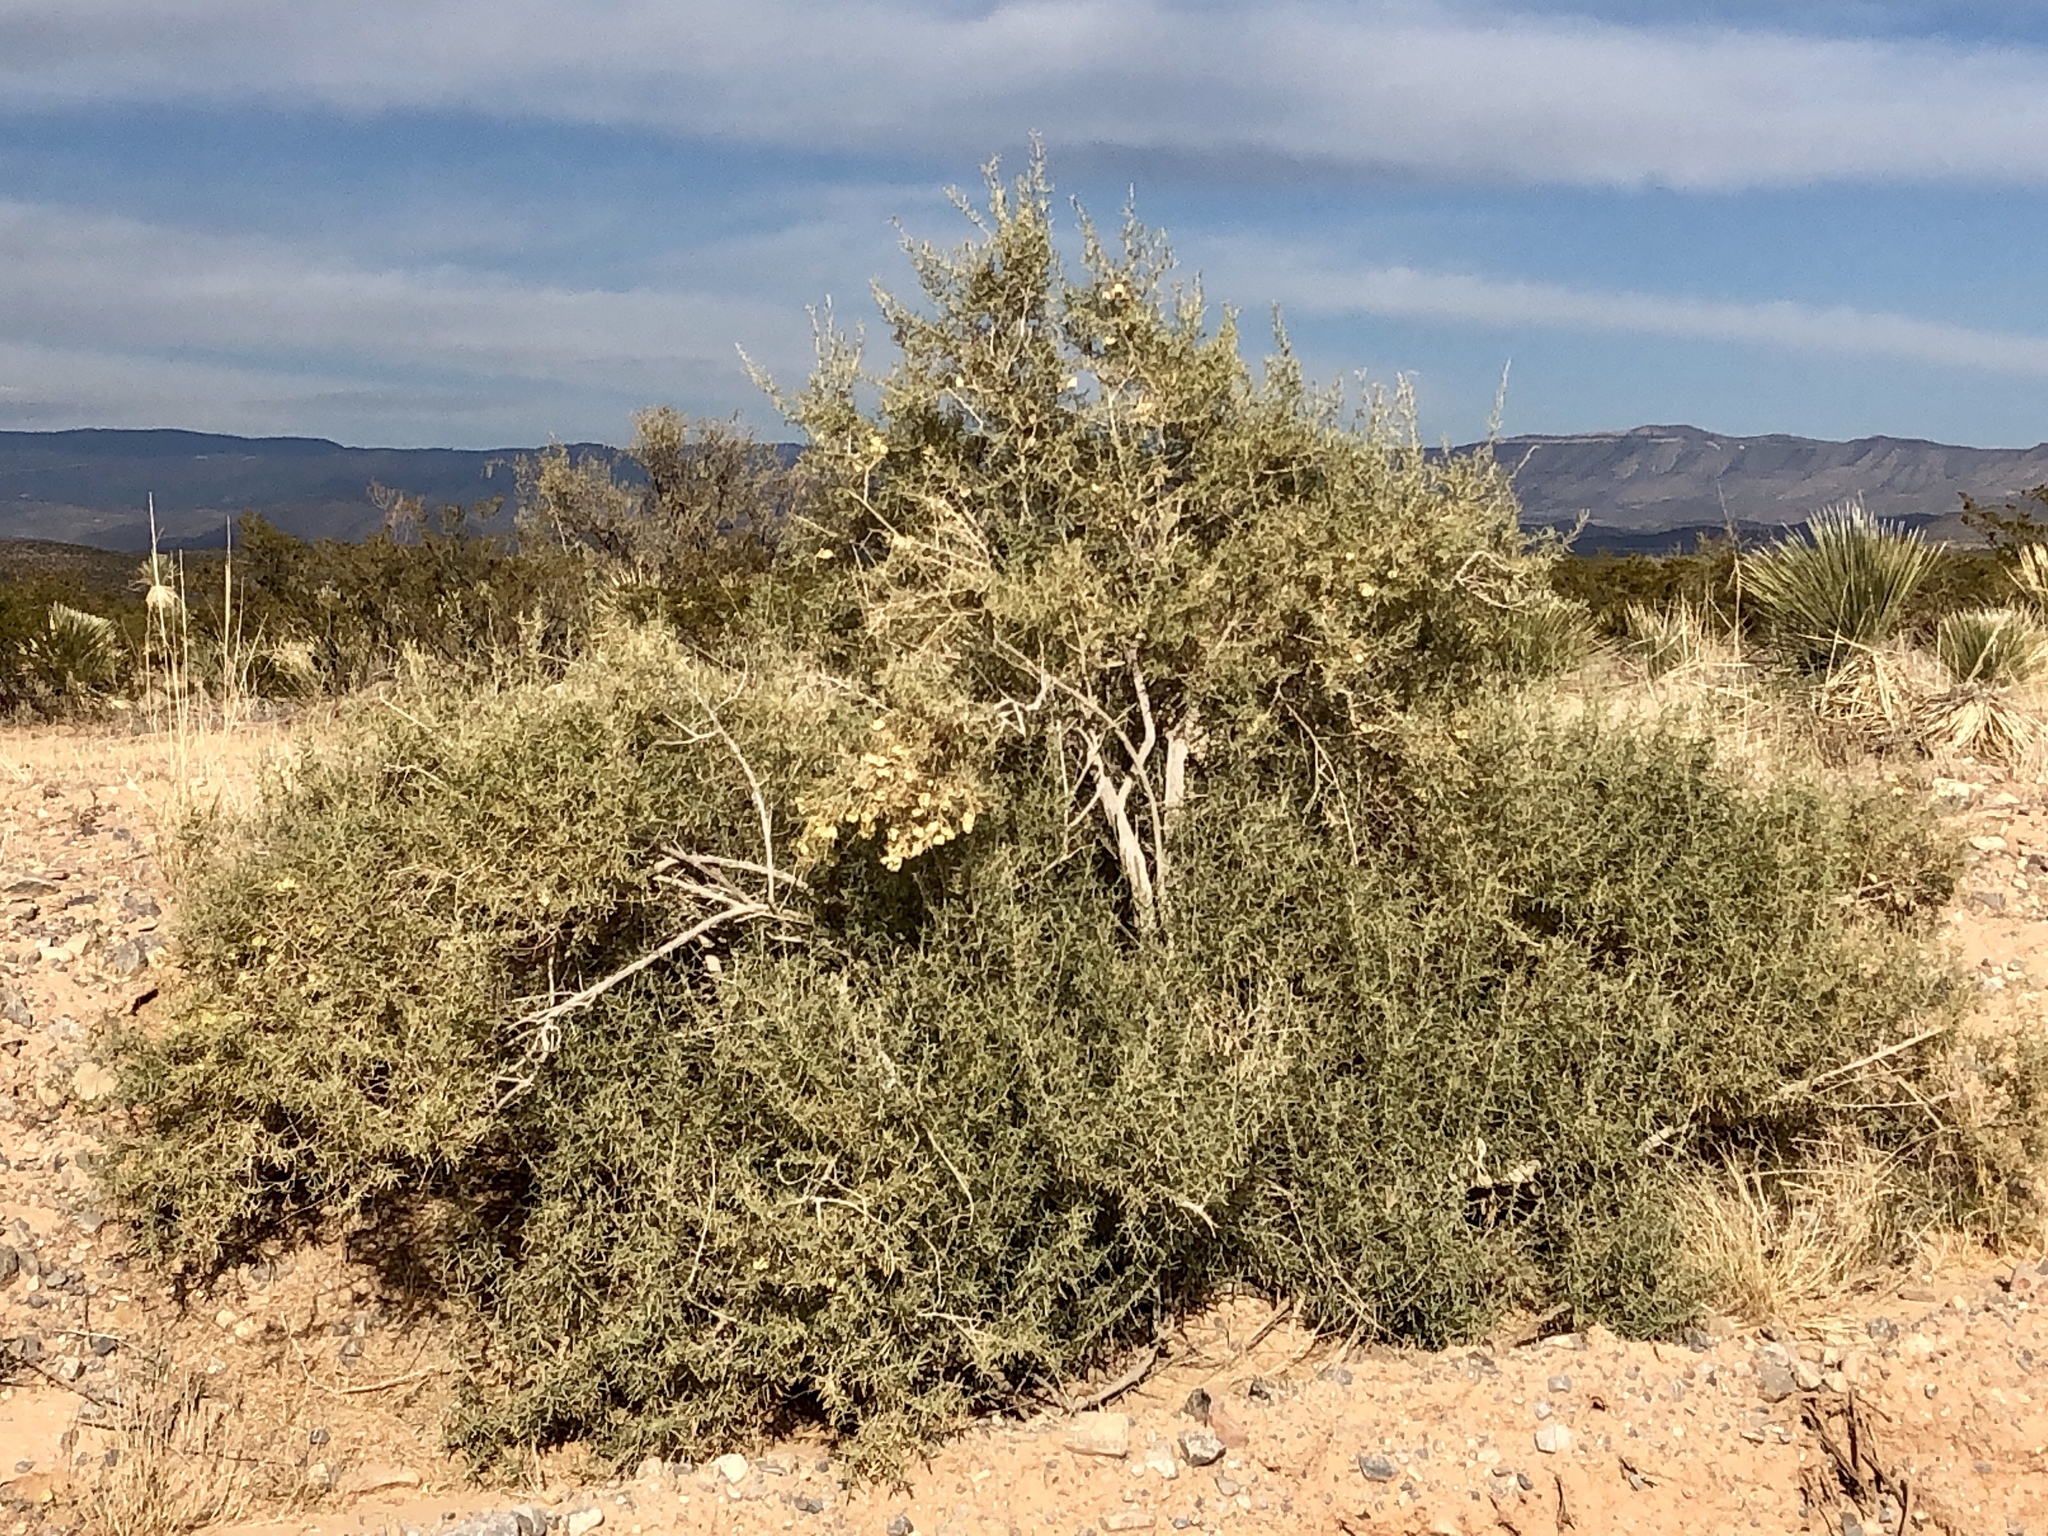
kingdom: Plantae
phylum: Tracheophyta
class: Magnoliopsida
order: Caryophyllales
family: Amaranthaceae
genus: Atriplex
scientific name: Atriplex canescens
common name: Four-wing saltbush
